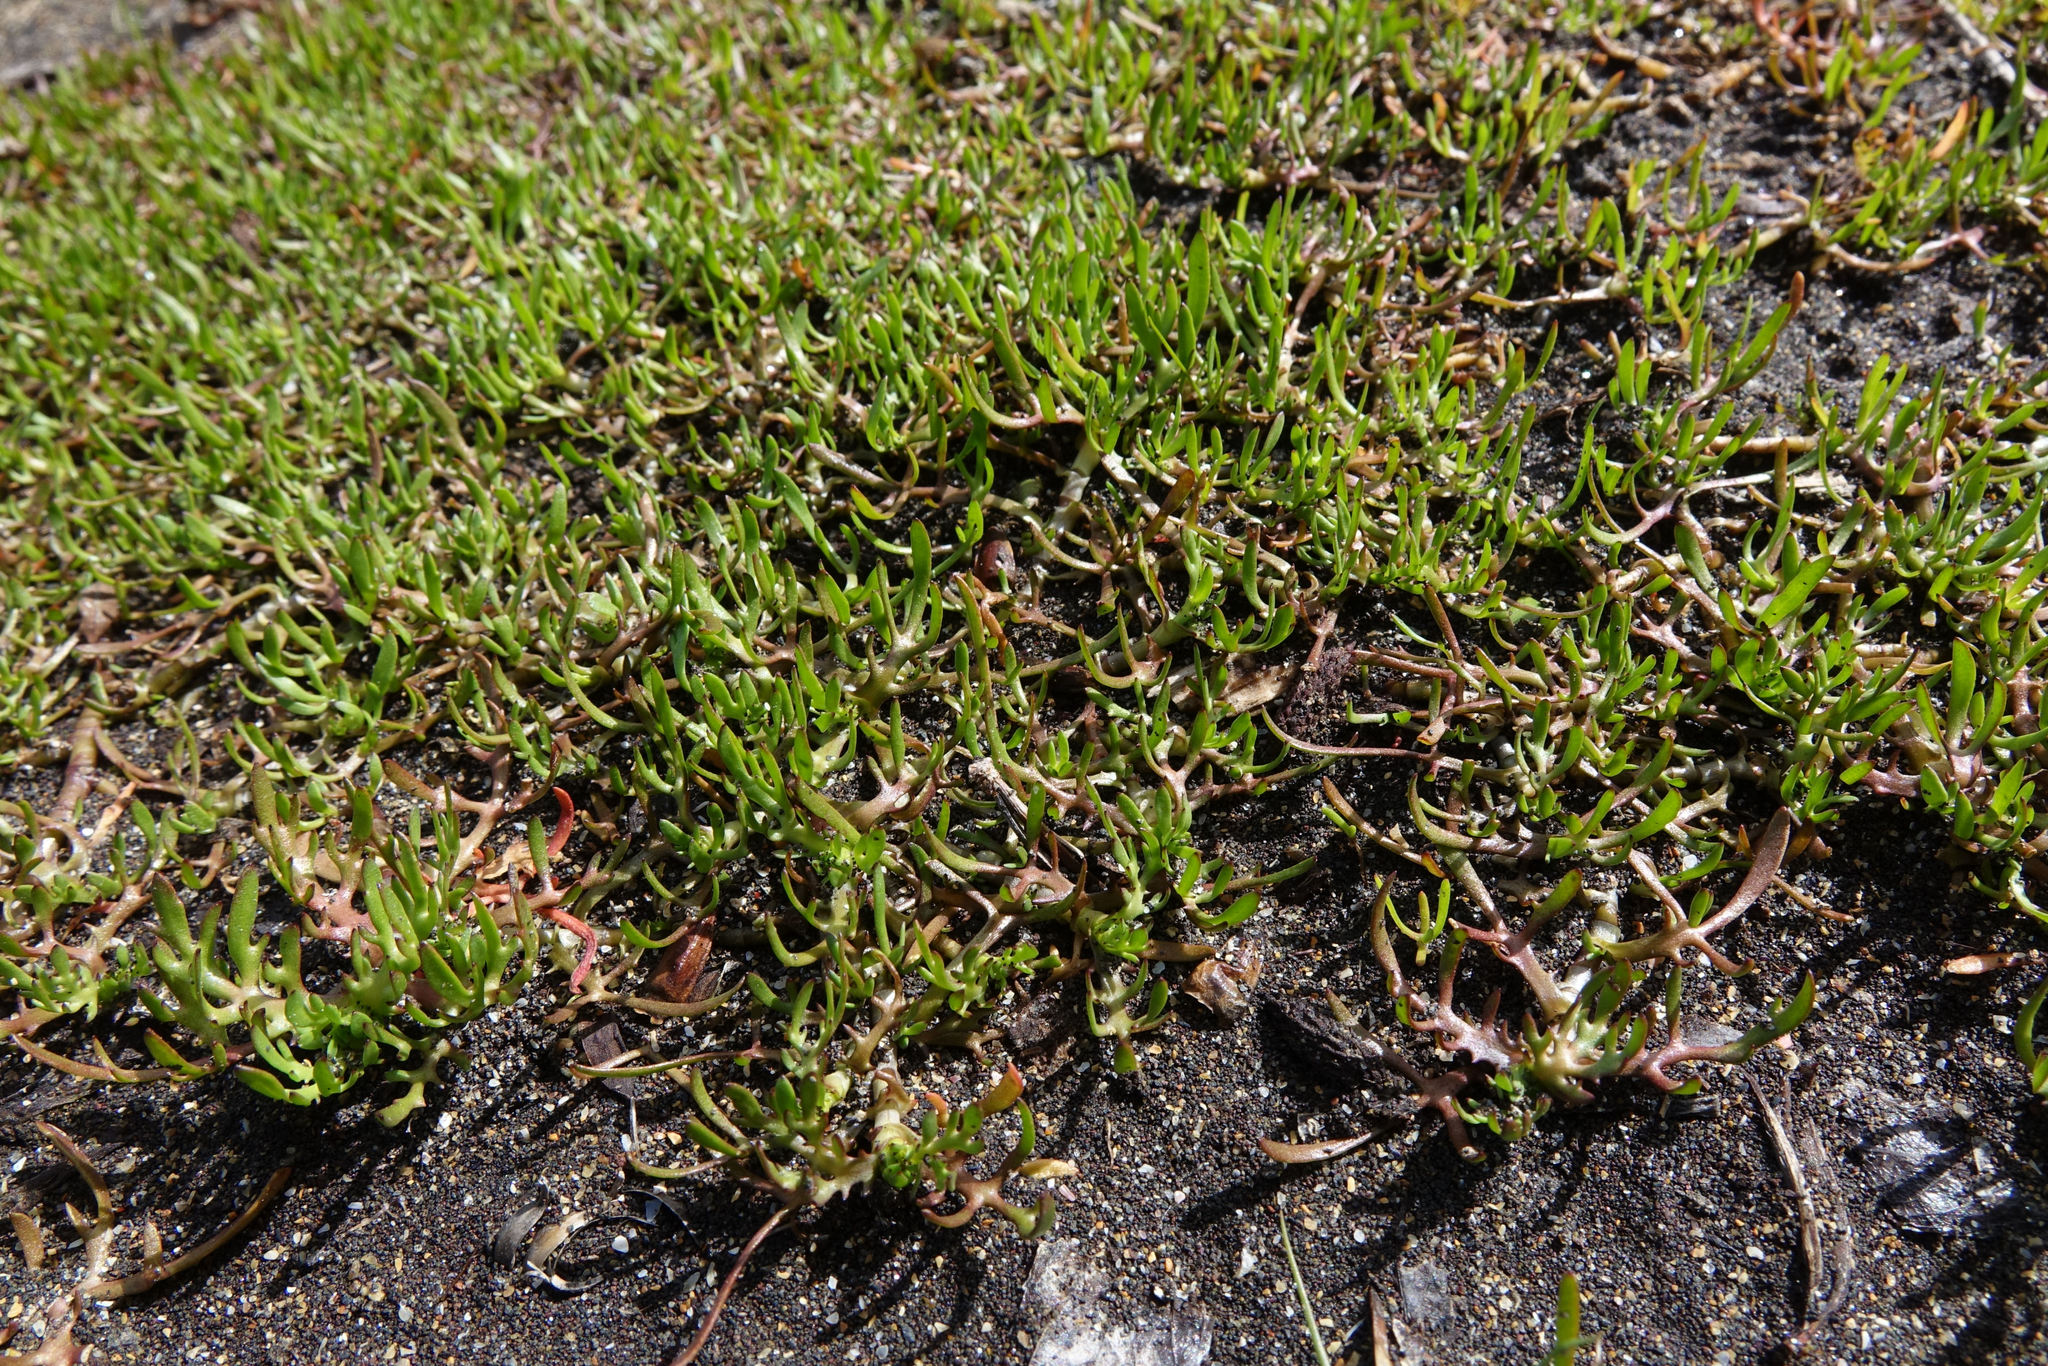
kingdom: Plantae
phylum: Tracheophyta
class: Magnoliopsida
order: Asterales
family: Asteraceae
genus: Cotula
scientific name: Cotula coronopifolia
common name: Buttonweed
